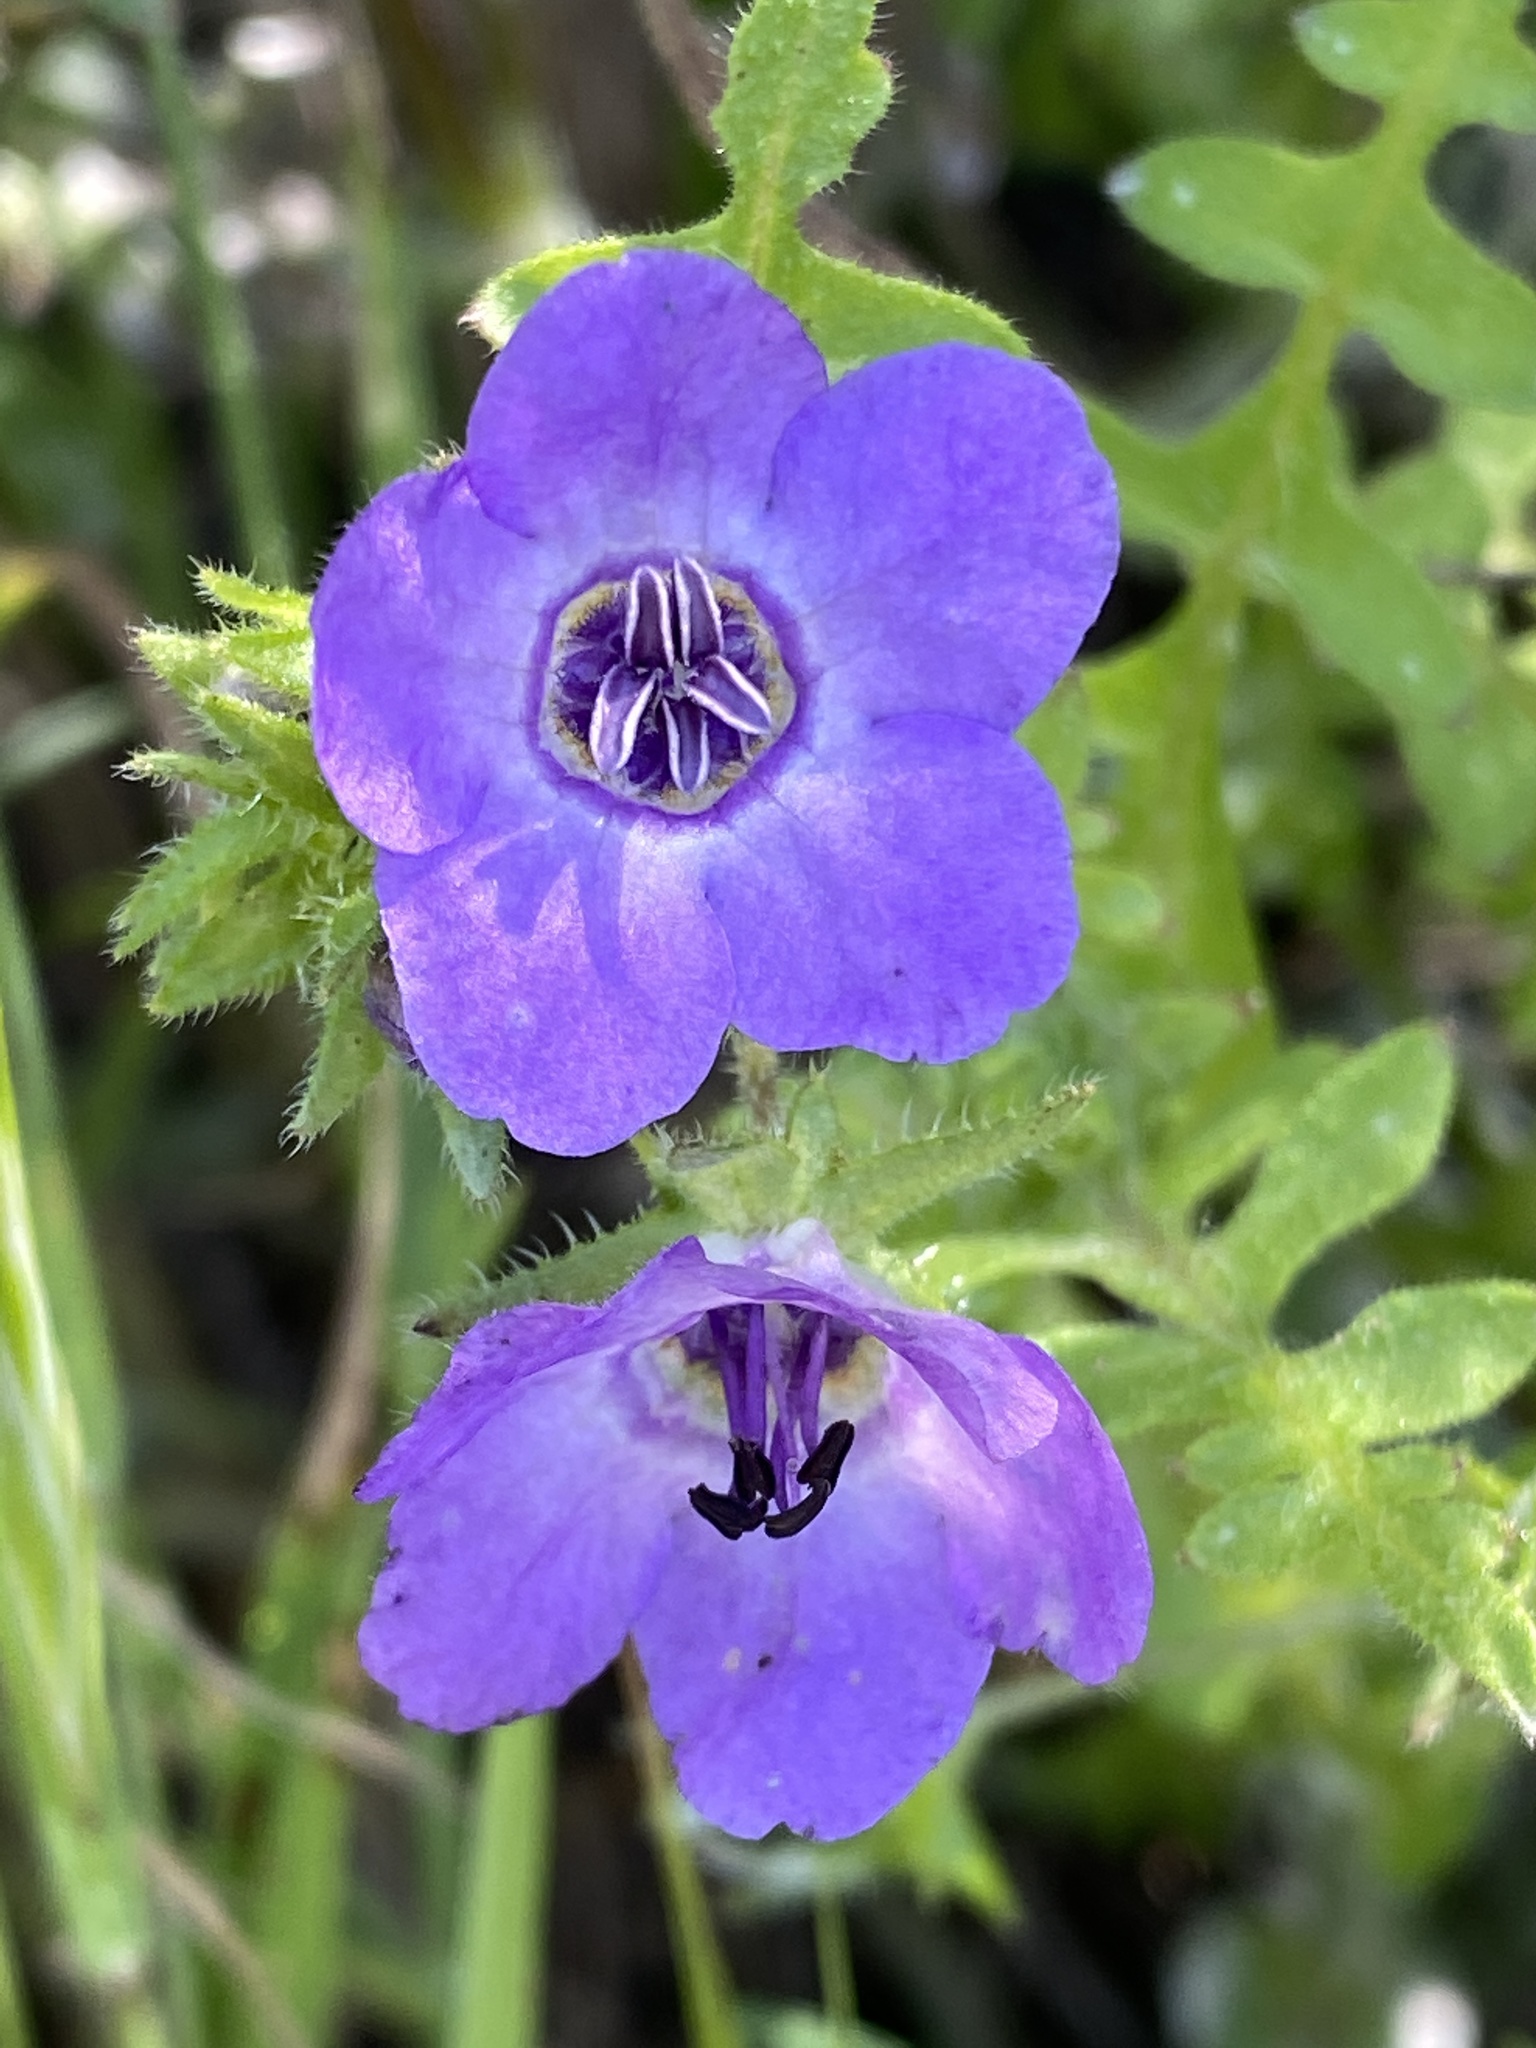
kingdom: Plantae
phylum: Tracheophyta
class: Magnoliopsida
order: Boraginales
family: Hydrophyllaceae
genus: Pholistoma
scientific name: Pholistoma auritum
